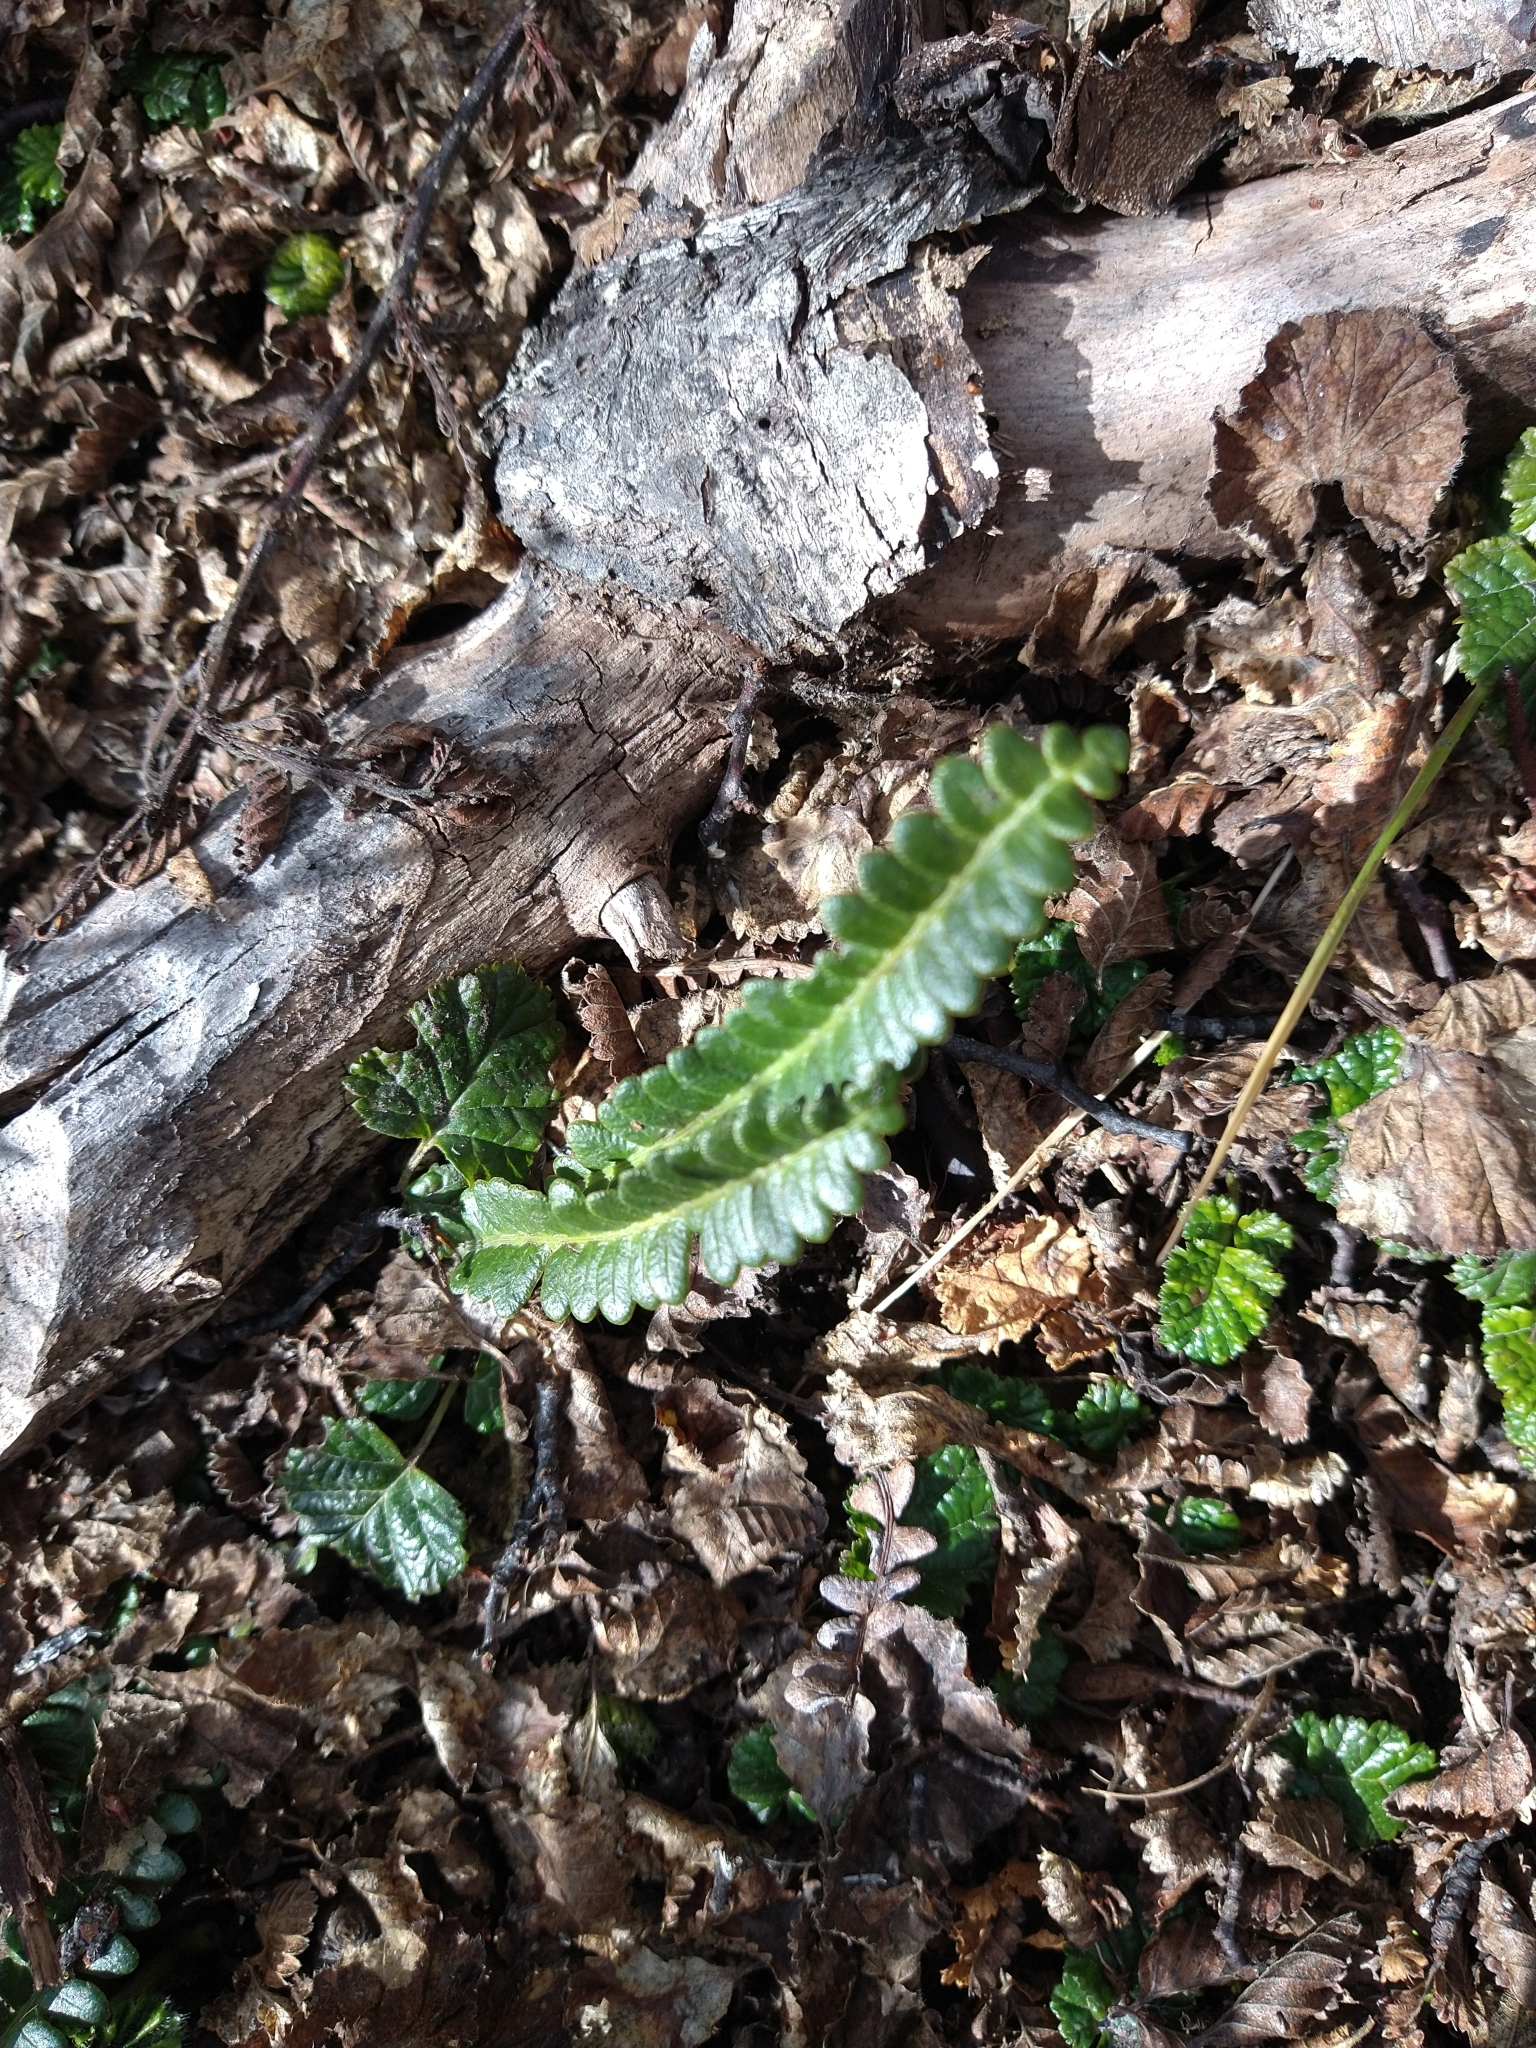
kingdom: Plantae
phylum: Tracheophyta
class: Polypodiopsida
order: Polypodiales
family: Blechnaceae
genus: Austroblechnum
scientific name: Austroblechnum penna-marina
